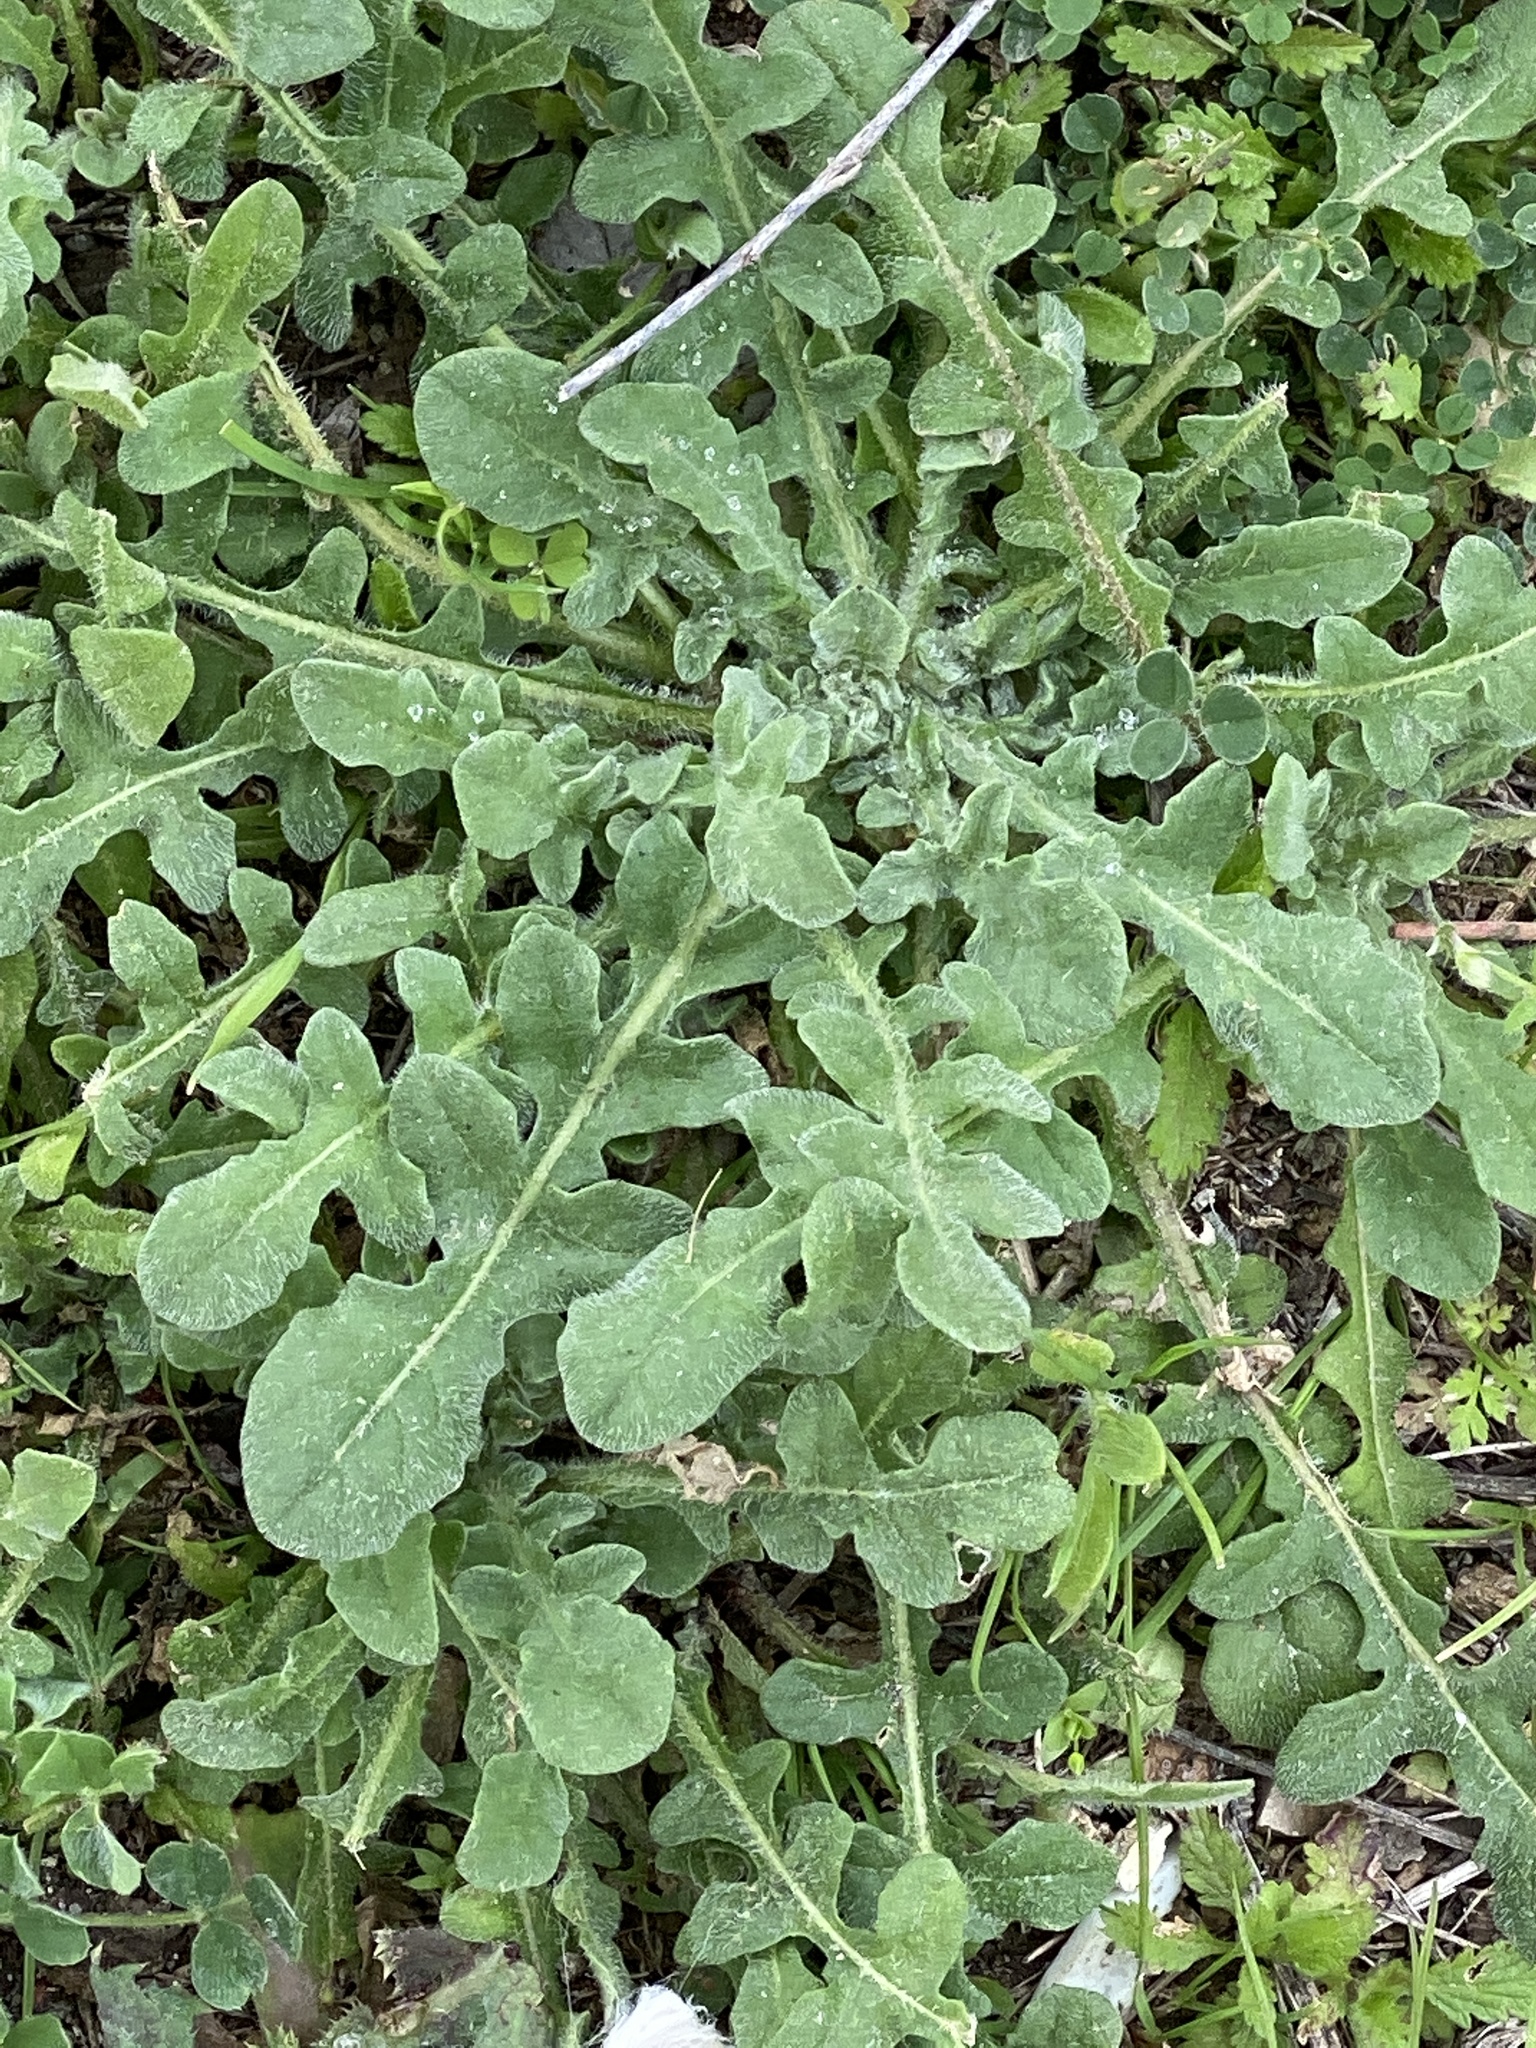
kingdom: Plantae
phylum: Tracheophyta
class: Magnoliopsida
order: Asterales
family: Asteraceae
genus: Centaurea
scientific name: Centaurea melitensis
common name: Maltese star-thistle
